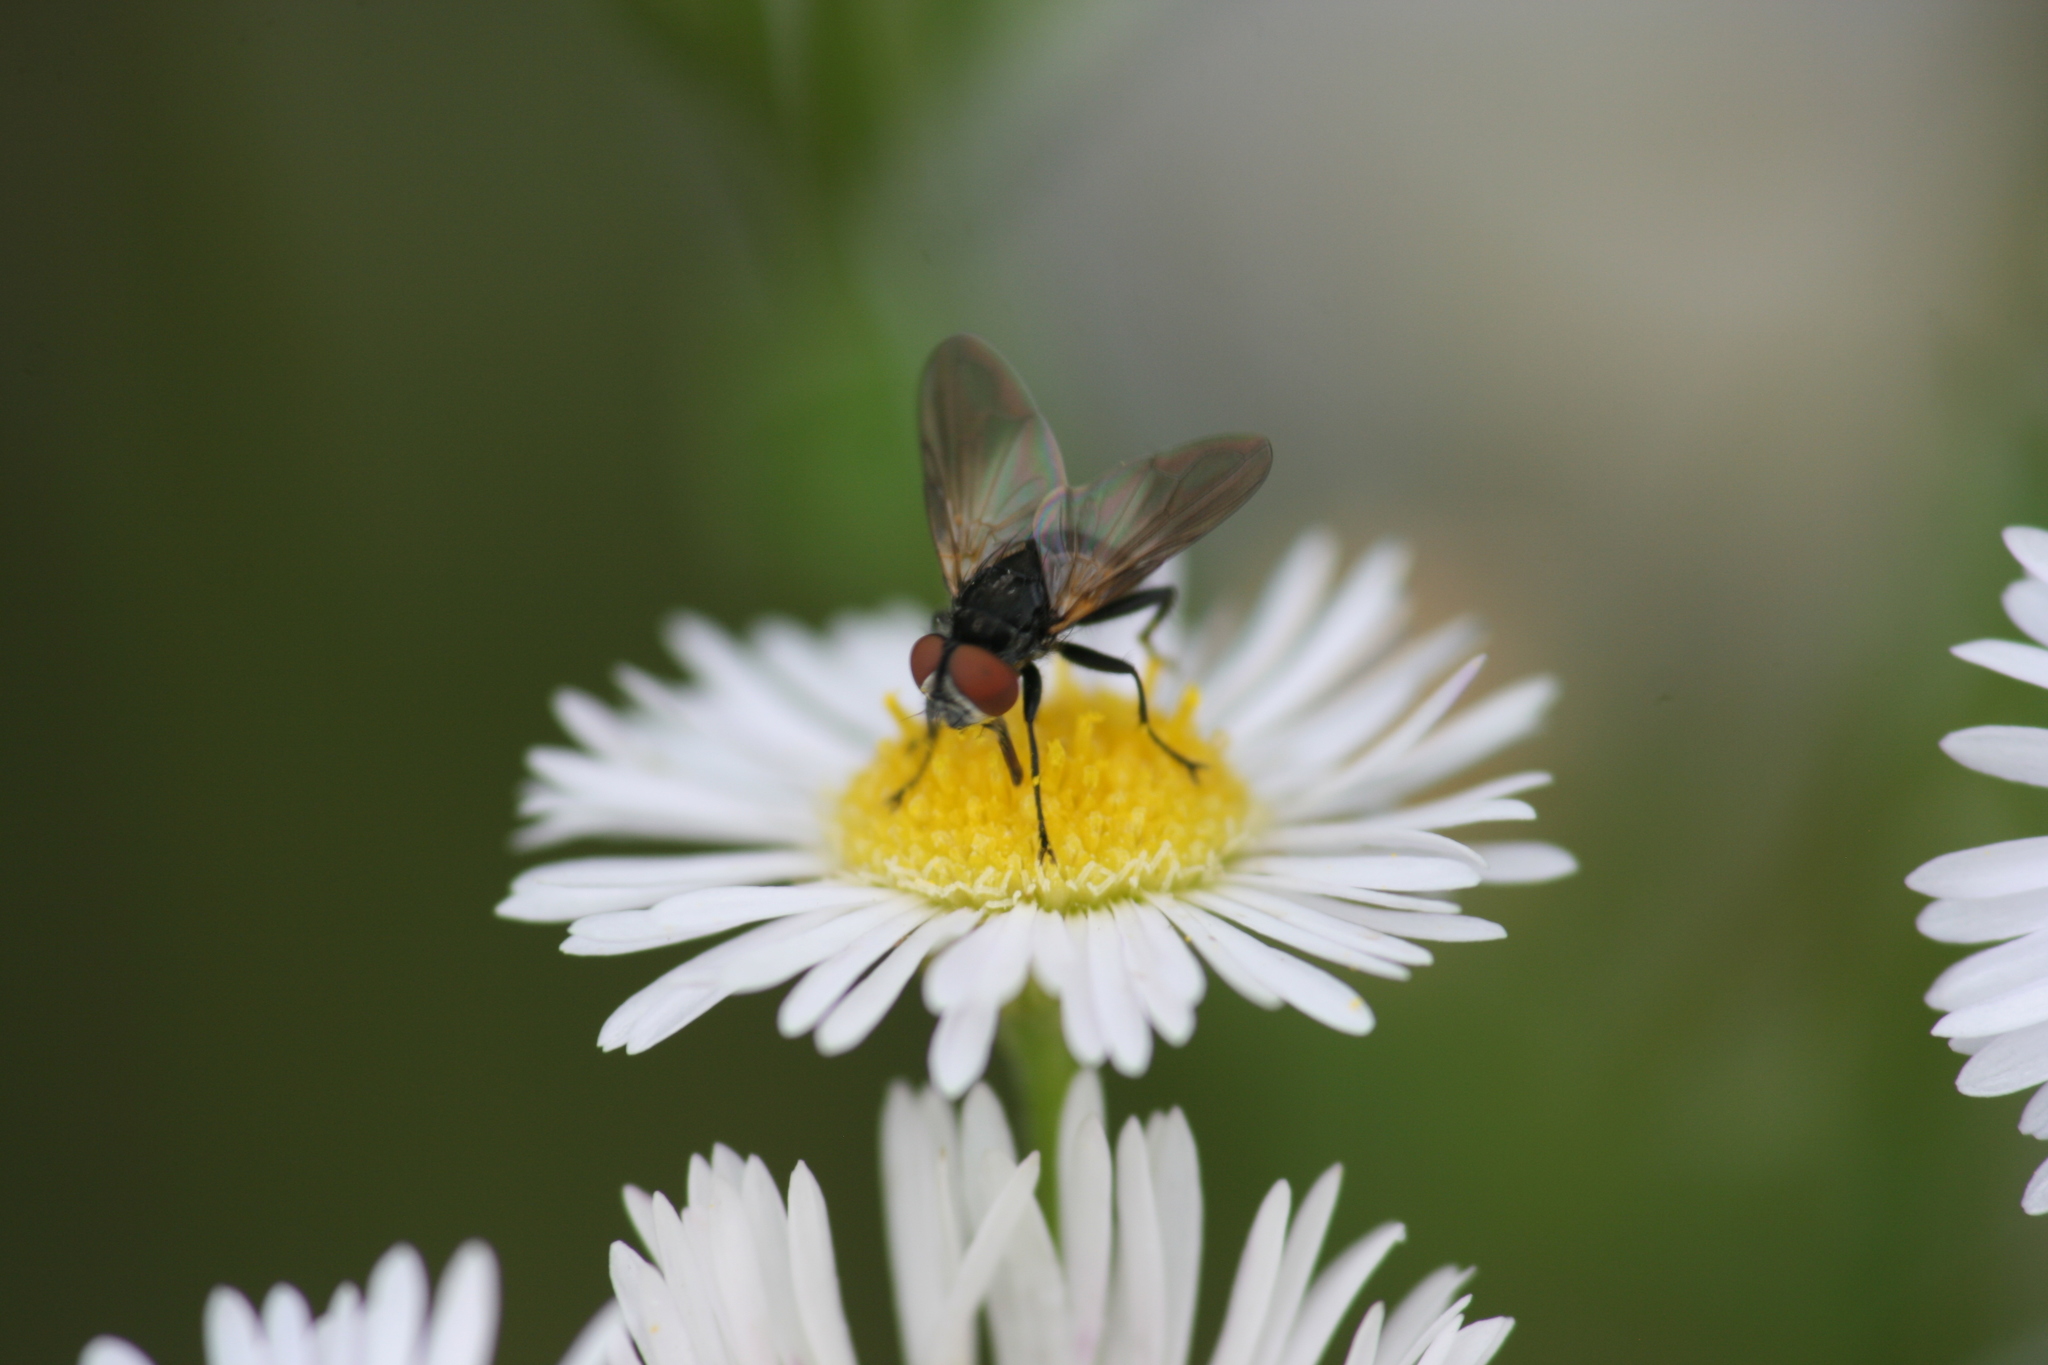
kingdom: Animalia
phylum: Arthropoda
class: Insecta
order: Diptera
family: Tachinidae
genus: Phasia
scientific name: Phasia obesa
